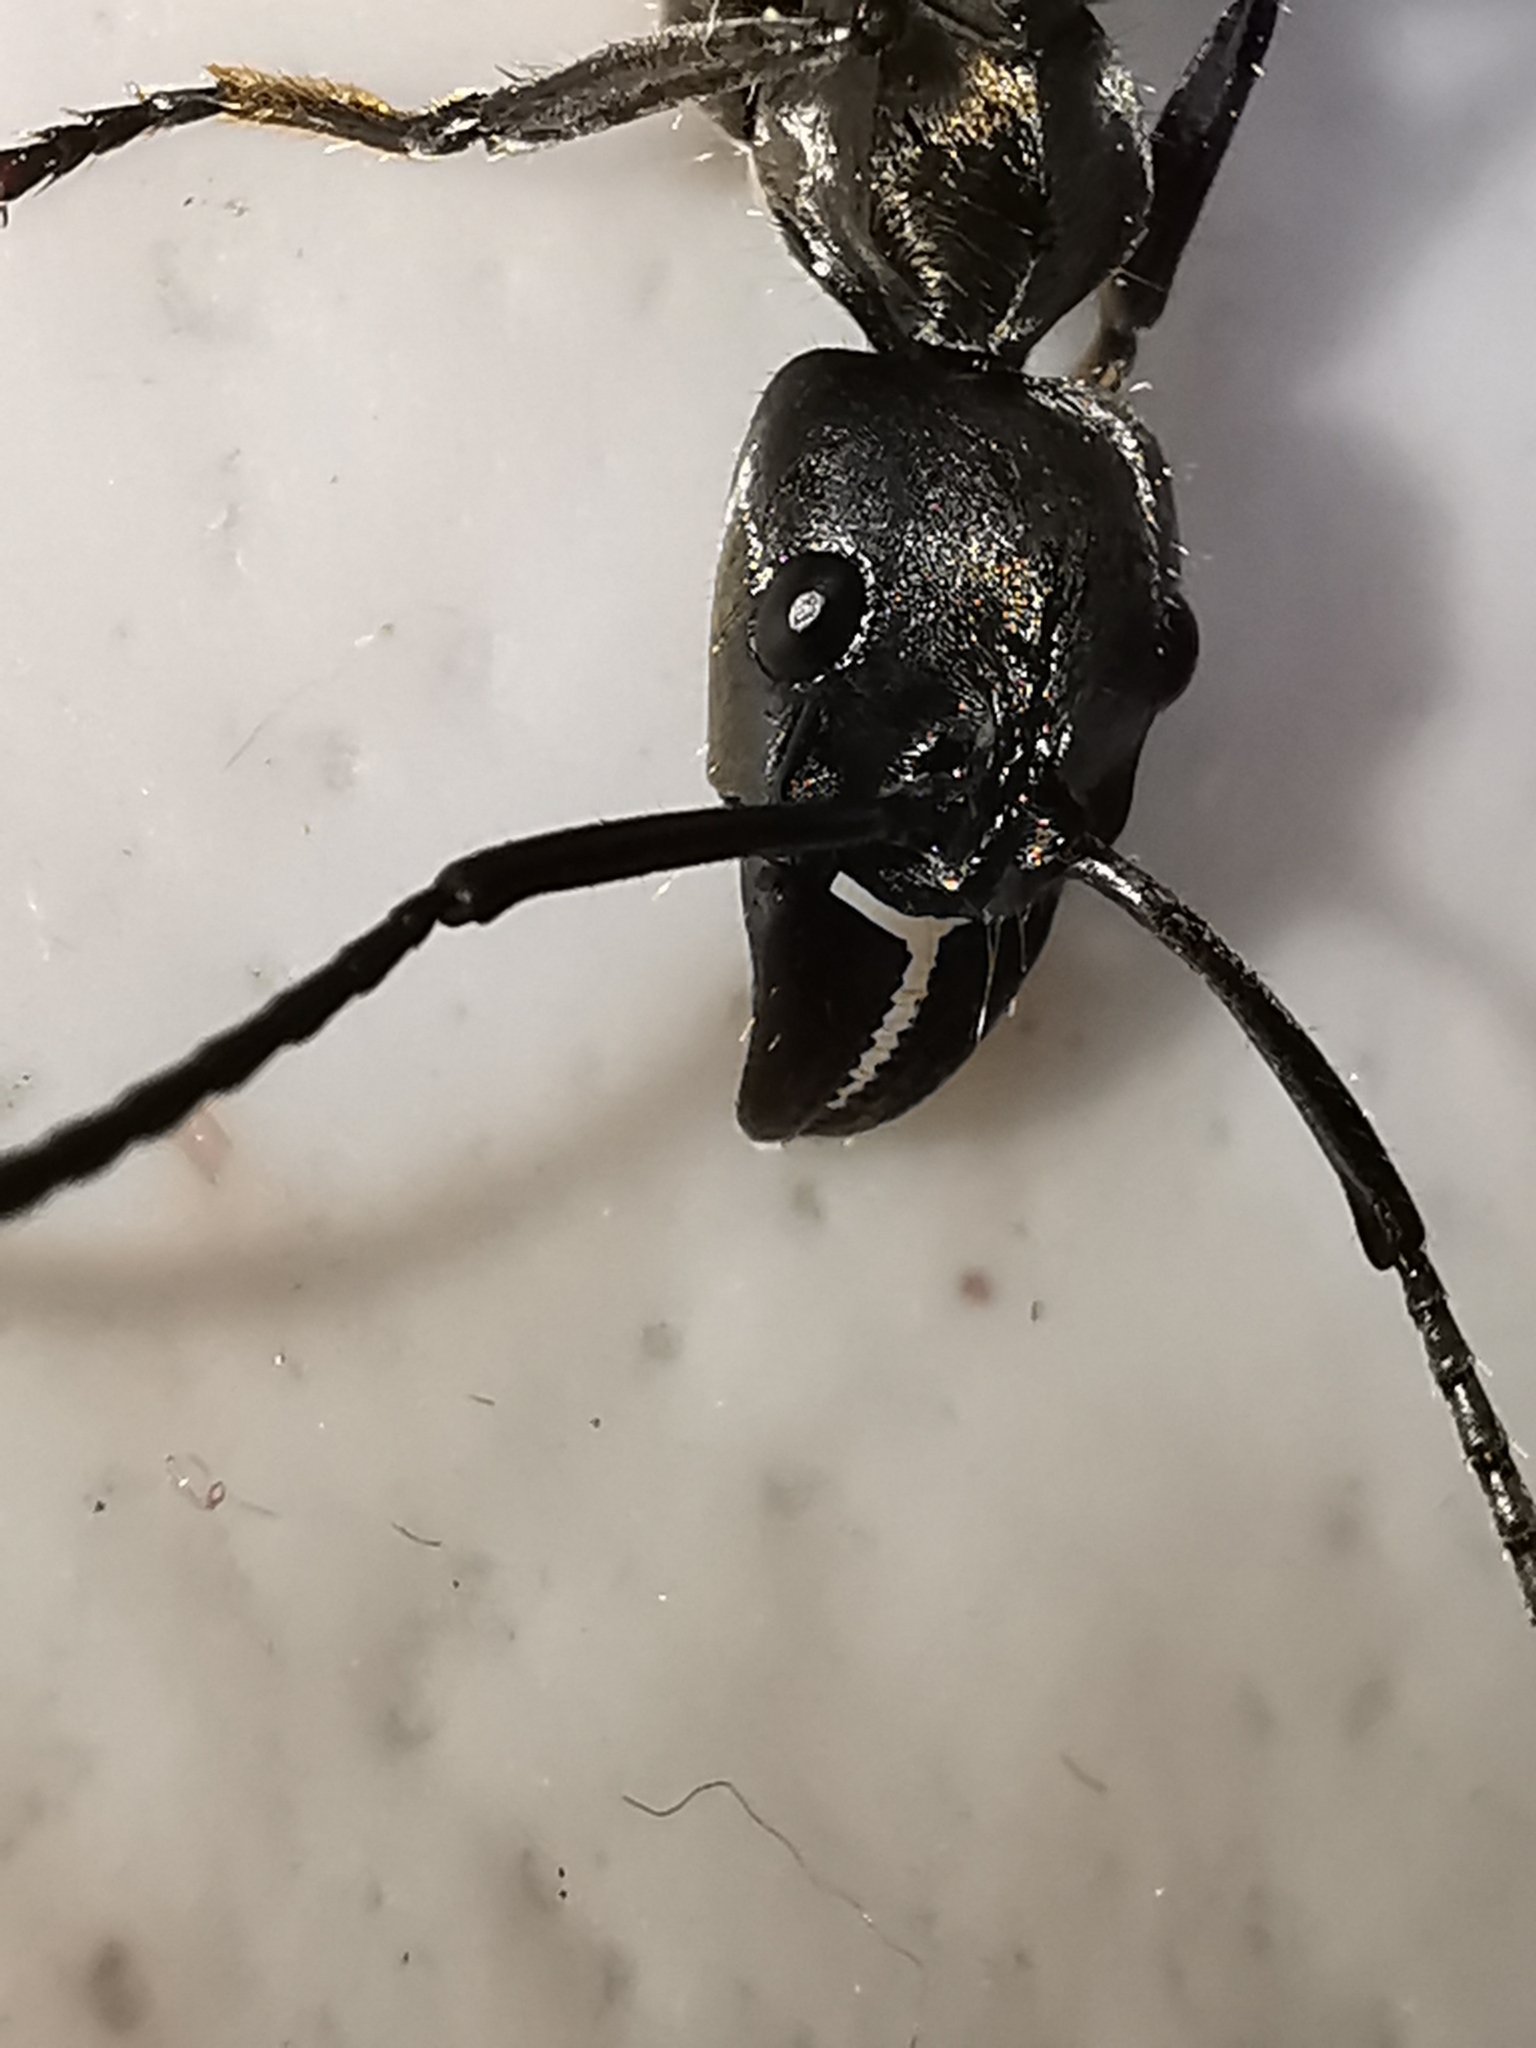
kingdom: Animalia
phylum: Arthropoda
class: Insecta
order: Hymenoptera
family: Formicidae
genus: Pachycondyla
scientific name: Pachycondyla villosa
